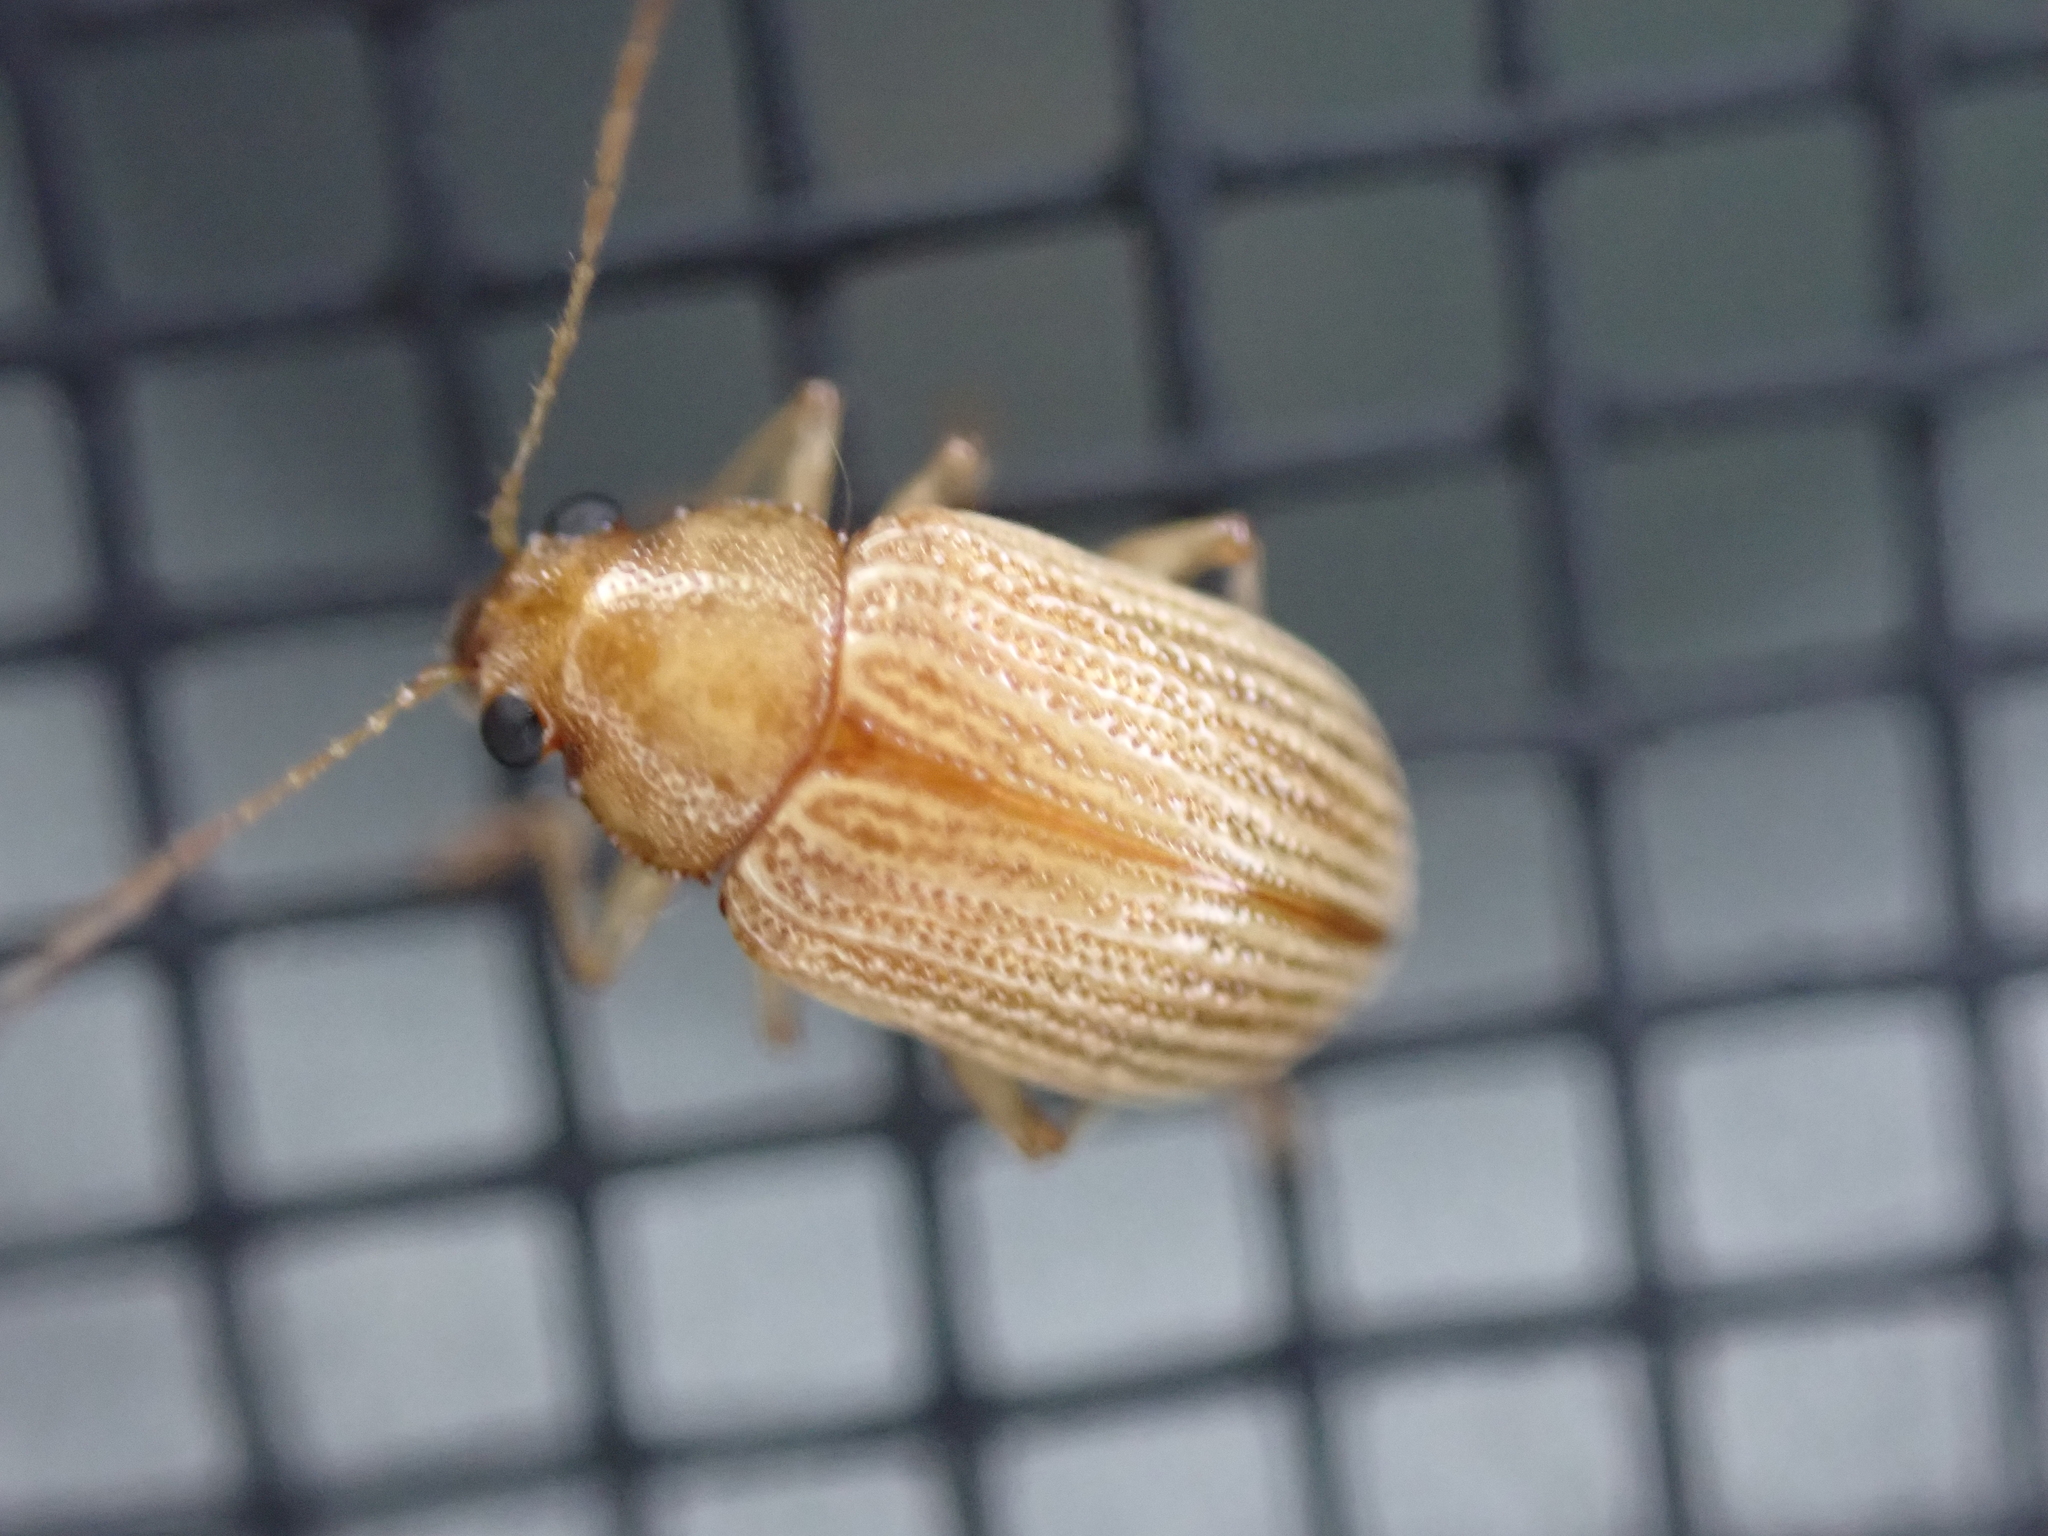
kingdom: Animalia
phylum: Arthropoda
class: Insecta
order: Coleoptera
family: Chrysomelidae
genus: Colaspis
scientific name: Colaspis brunnea
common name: Grape colaspis
